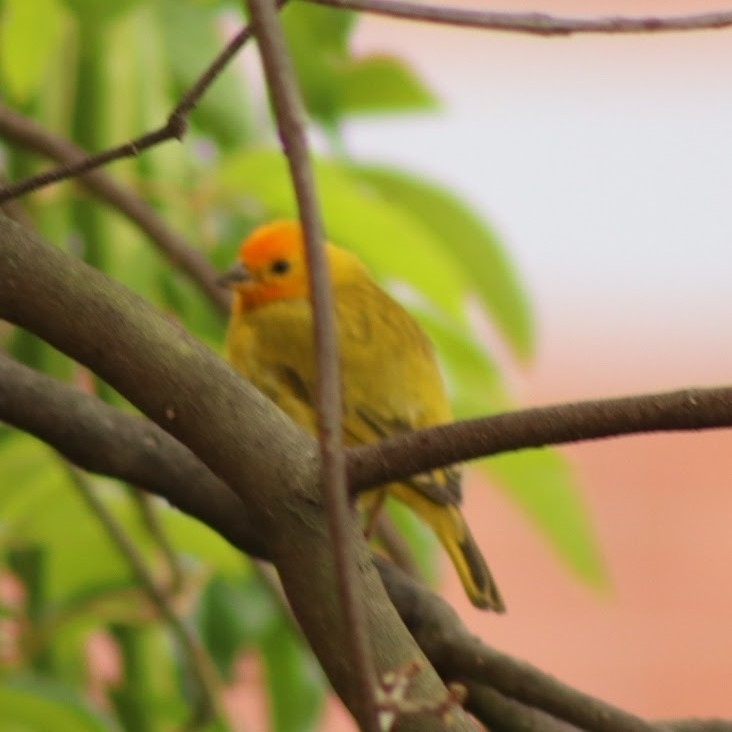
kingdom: Animalia
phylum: Chordata
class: Aves
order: Passeriformes
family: Thraupidae
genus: Sicalis
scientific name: Sicalis flaveola
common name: Saffron finch
